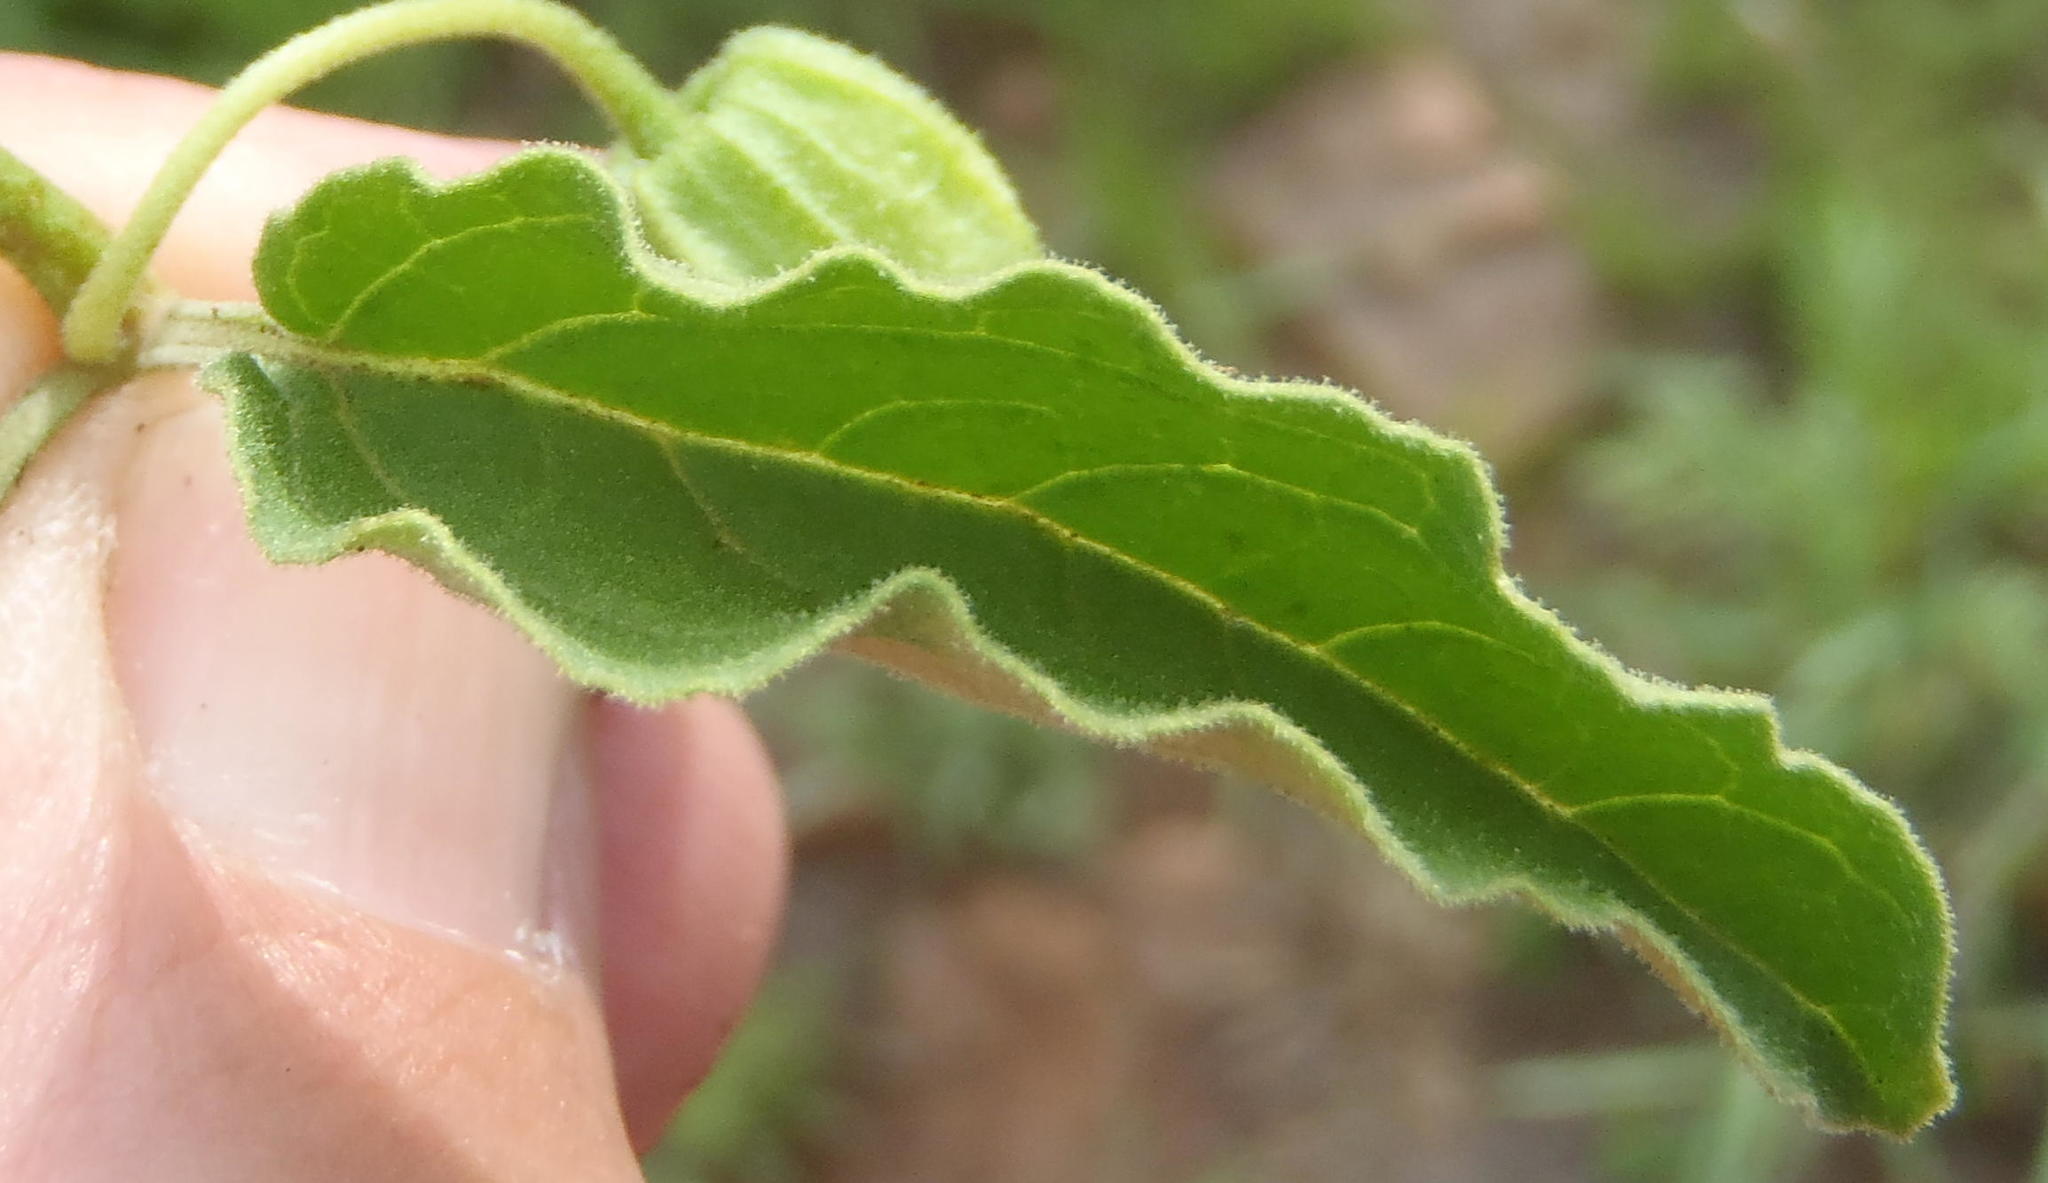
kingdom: Plantae
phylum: Tracheophyta
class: Magnoliopsida
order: Solanales
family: Solanaceae
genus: Physalis
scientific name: Physalis viscosa
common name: Stellate ground-cherry
